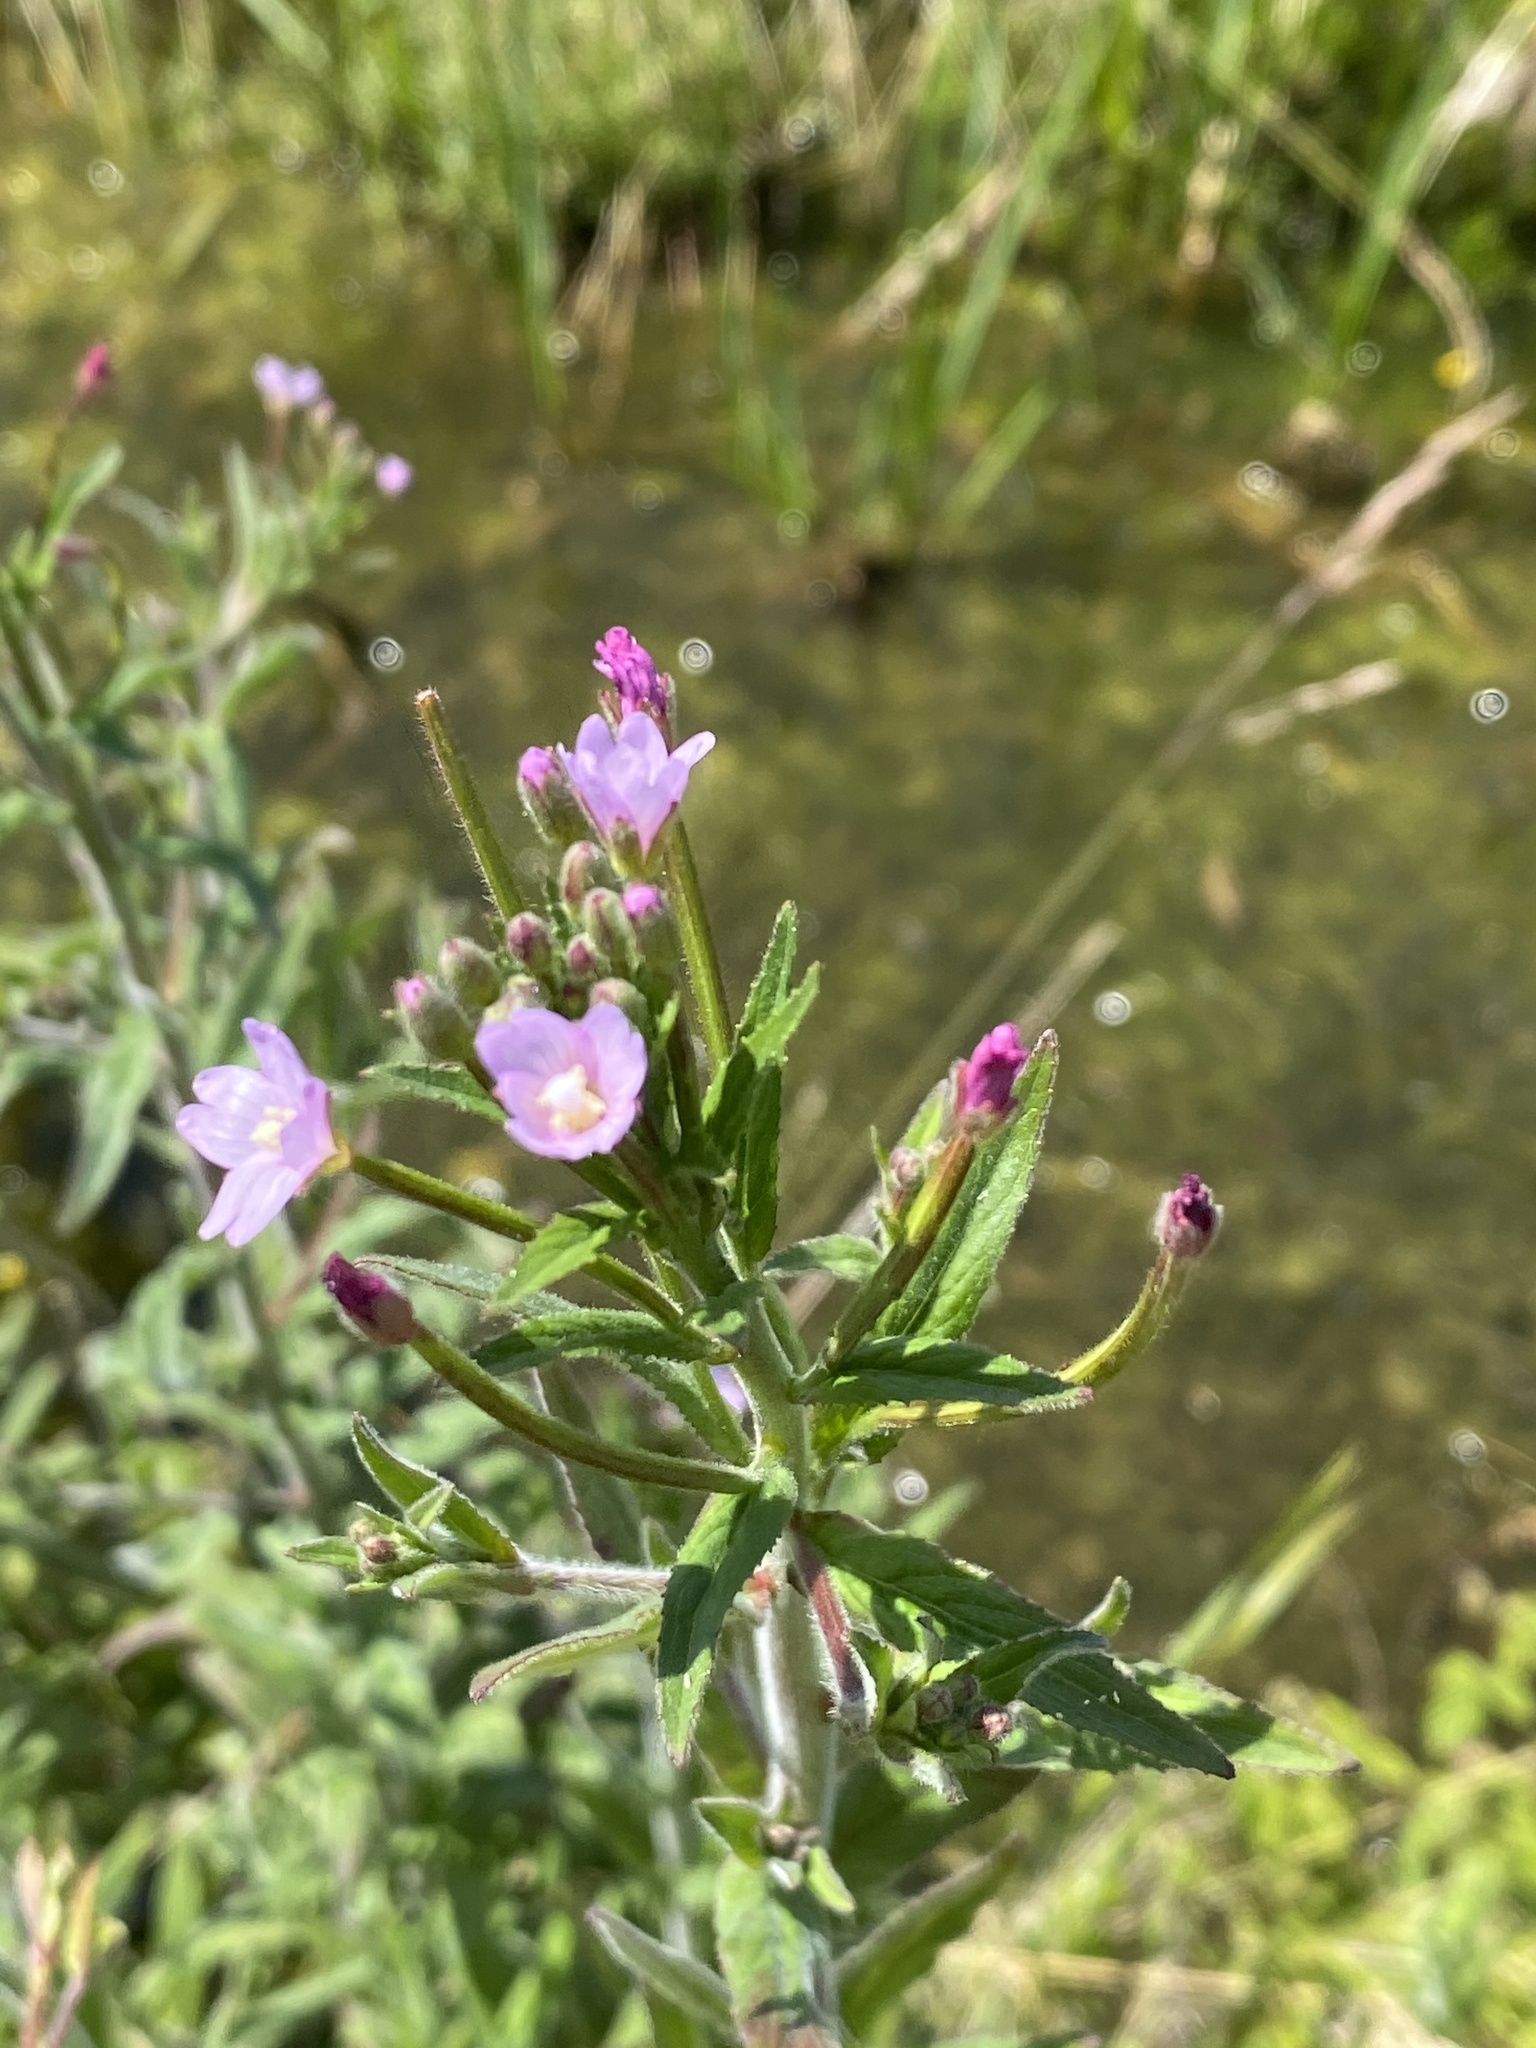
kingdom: Plantae
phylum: Tracheophyta
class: Magnoliopsida
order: Myrtales
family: Onagraceae
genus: Epilobium
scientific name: Epilobium parviflorum
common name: Hoary willowherb
